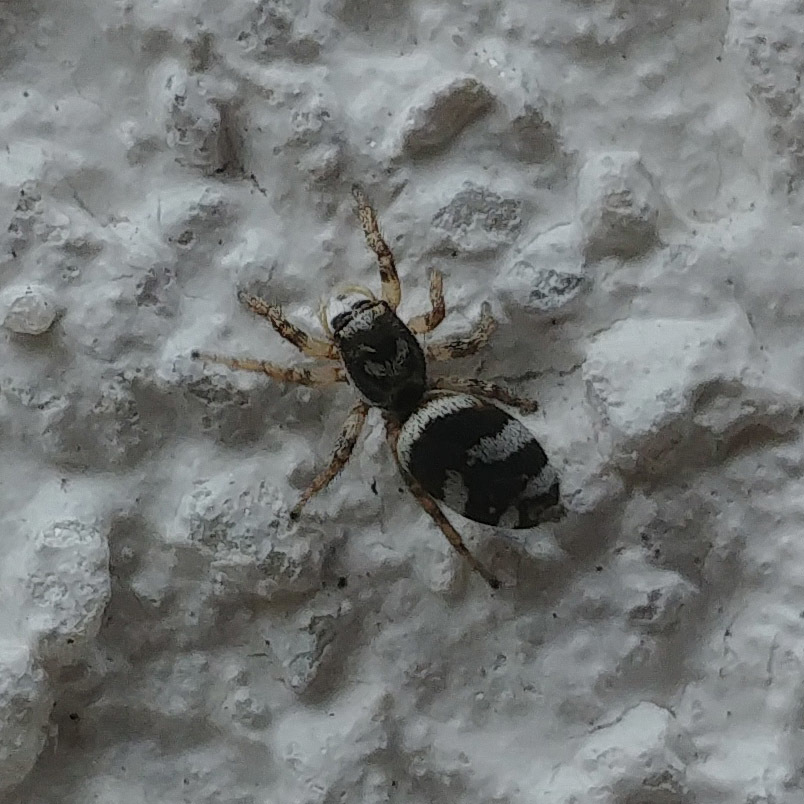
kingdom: Animalia
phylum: Arthropoda
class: Arachnida
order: Araneae
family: Salticidae
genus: Salticus
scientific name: Salticus scenicus
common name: Zebra jumper
